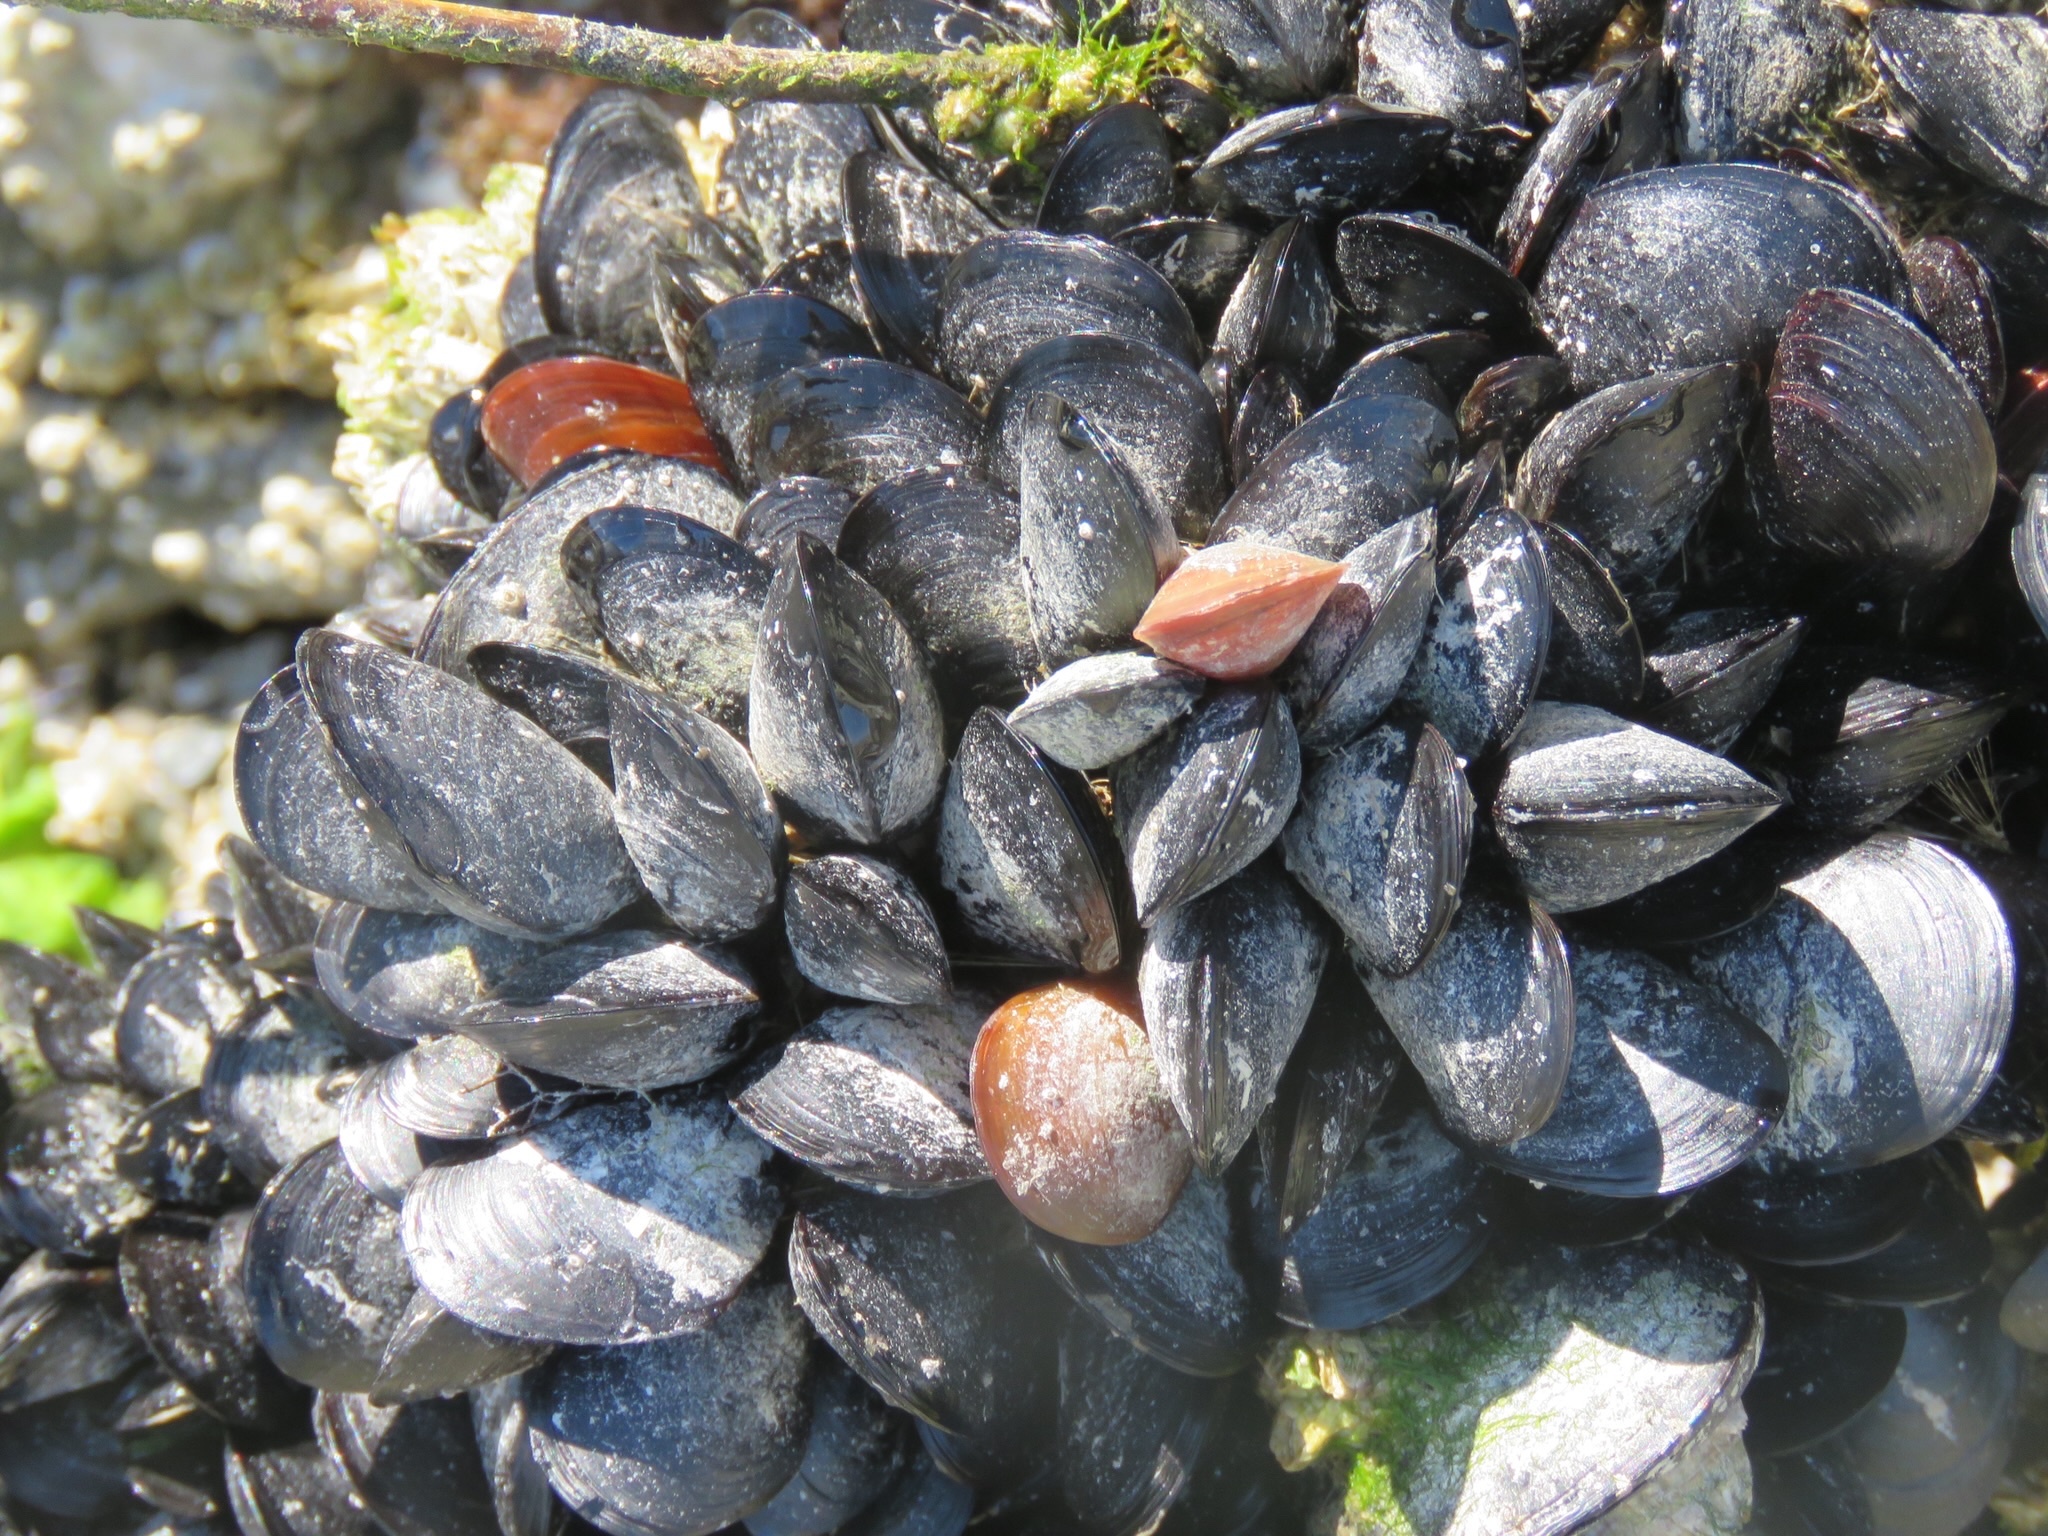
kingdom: Animalia
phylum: Mollusca
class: Bivalvia
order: Mytilida
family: Mytilidae
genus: Mytilus
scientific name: Mytilus
